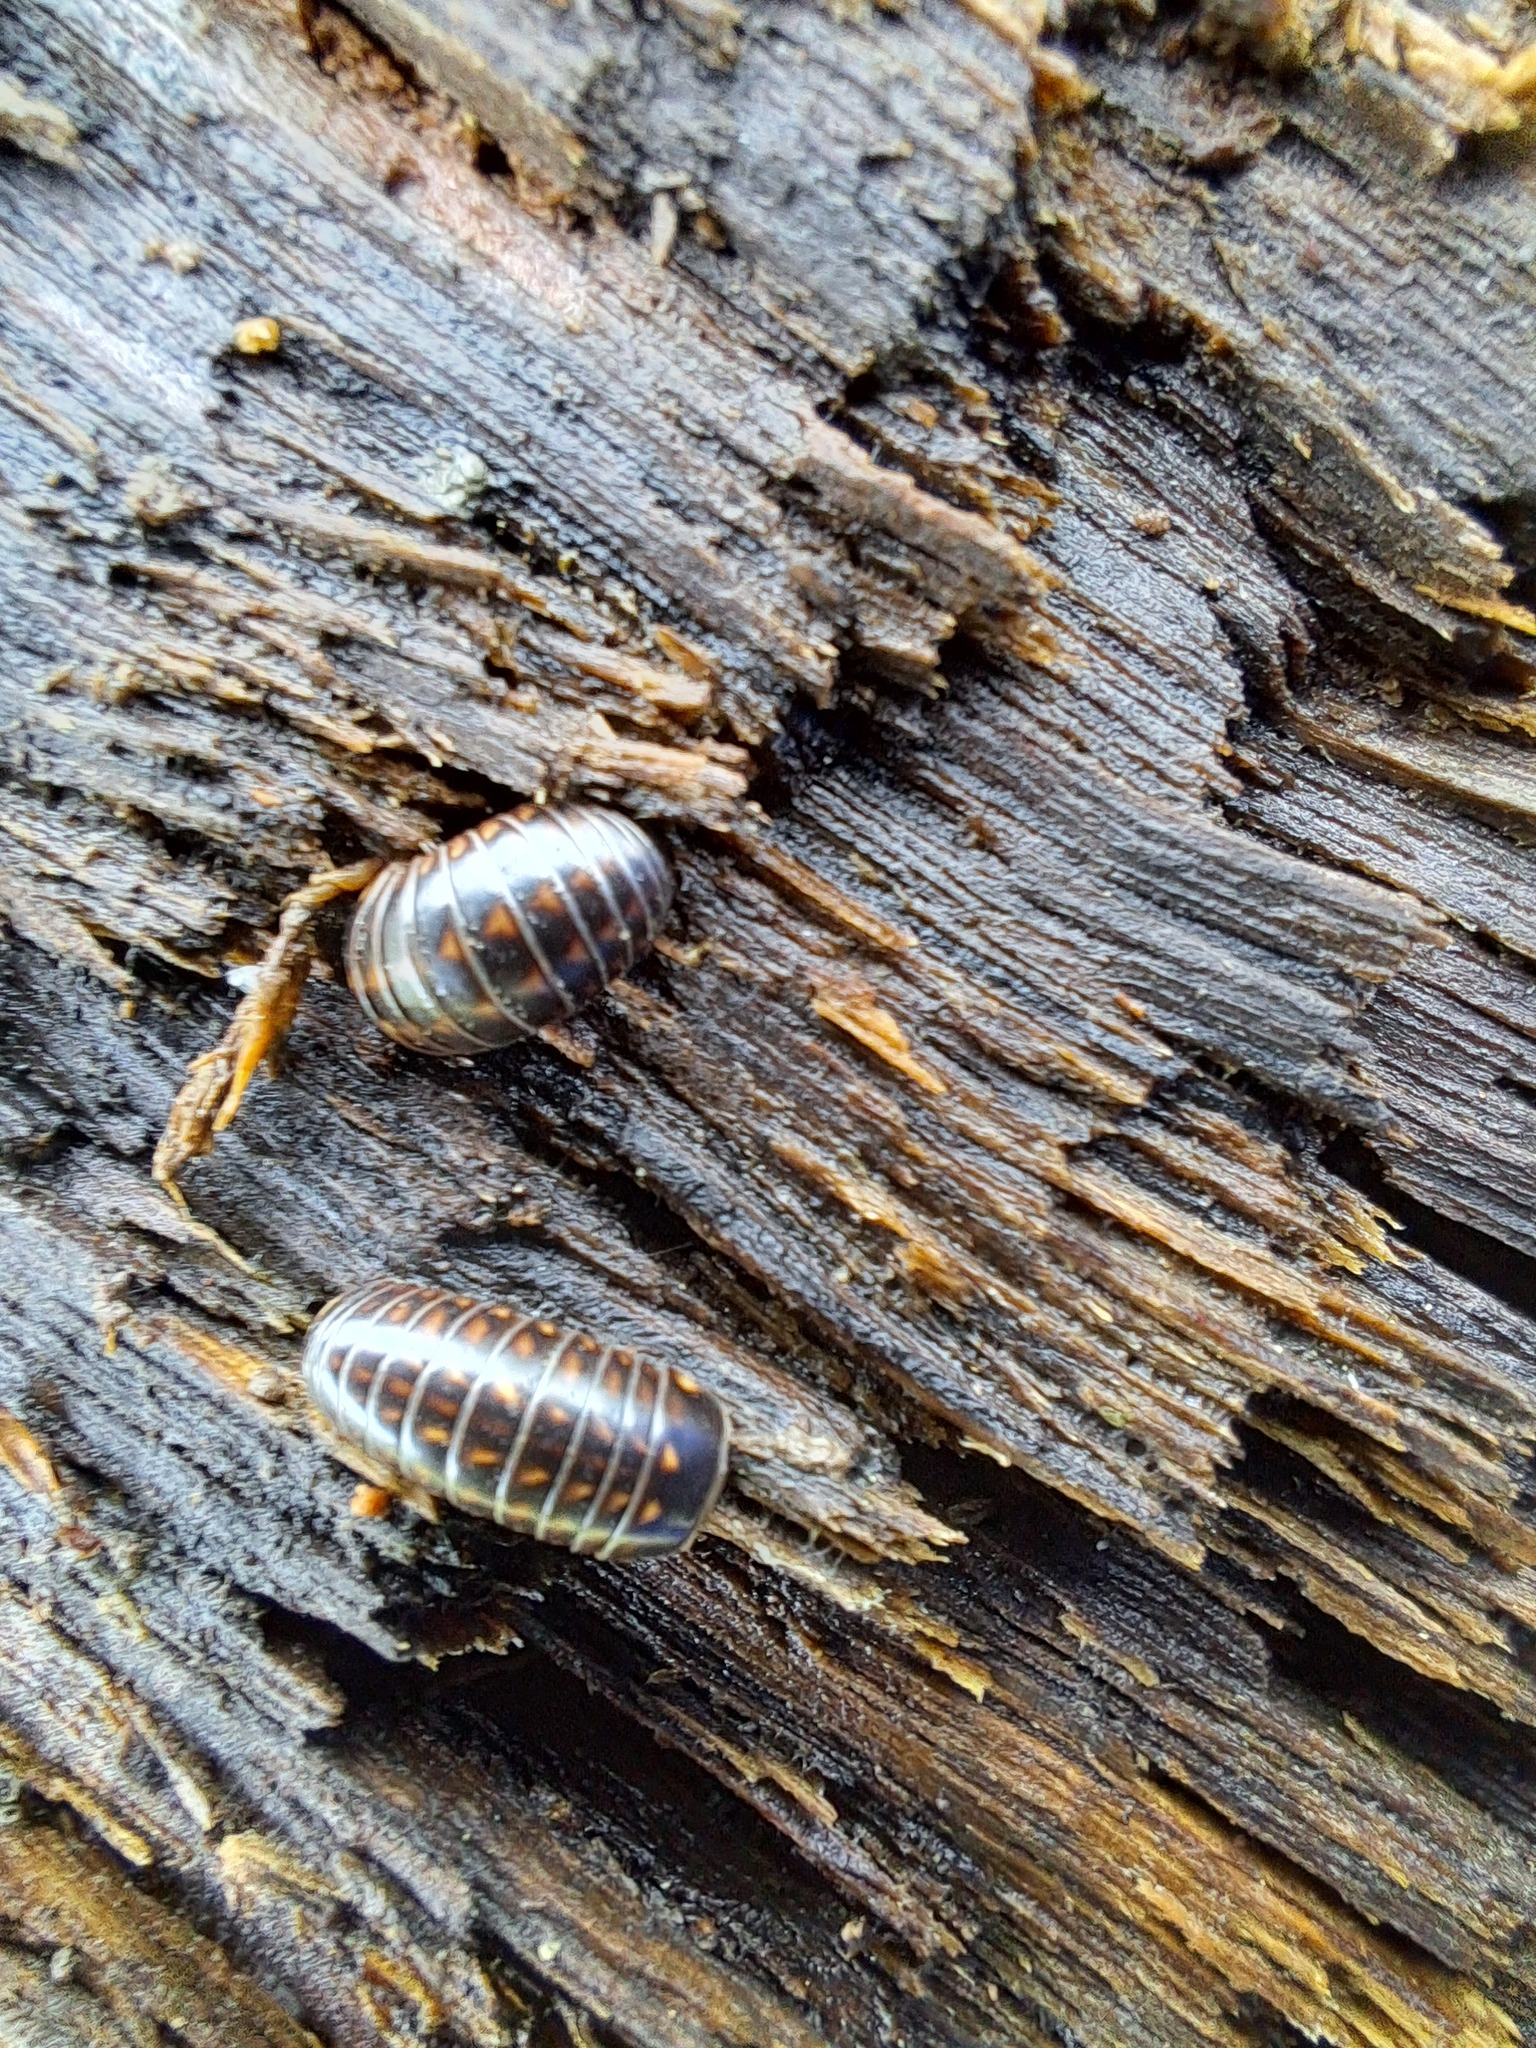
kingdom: Animalia
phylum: Arthropoda
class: Diplopoda
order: Glomerida
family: Glomeridae
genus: Glomeris
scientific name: Glomeris hexasticha
